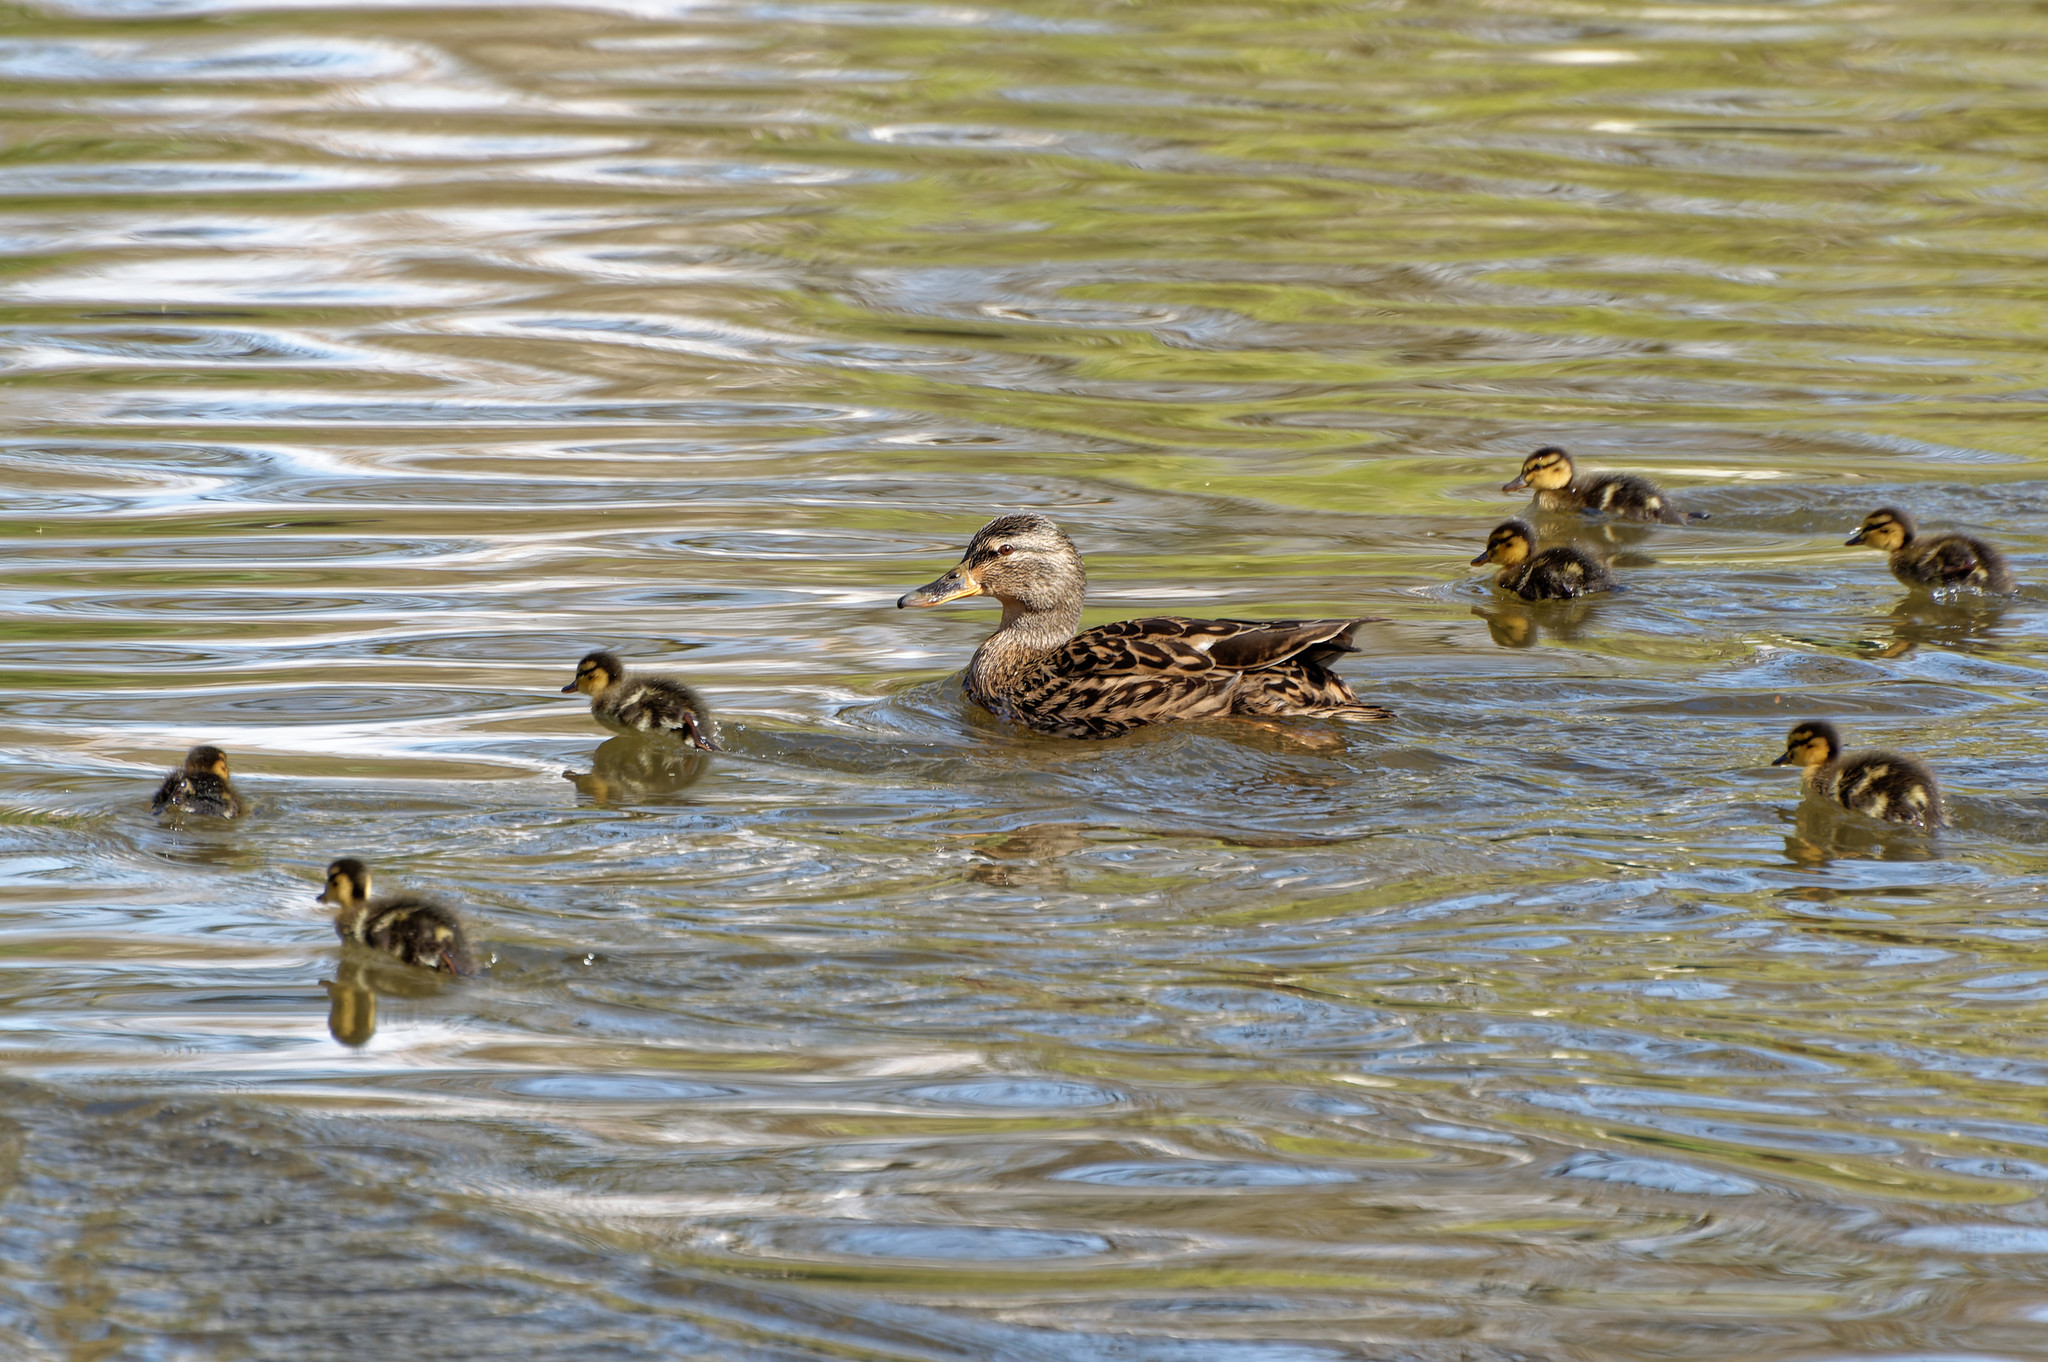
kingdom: Animalia
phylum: Chordata
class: Aves
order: Anseriformes
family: Anatidae
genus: Anas
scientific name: Anas platyrhynchos
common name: Mallard
